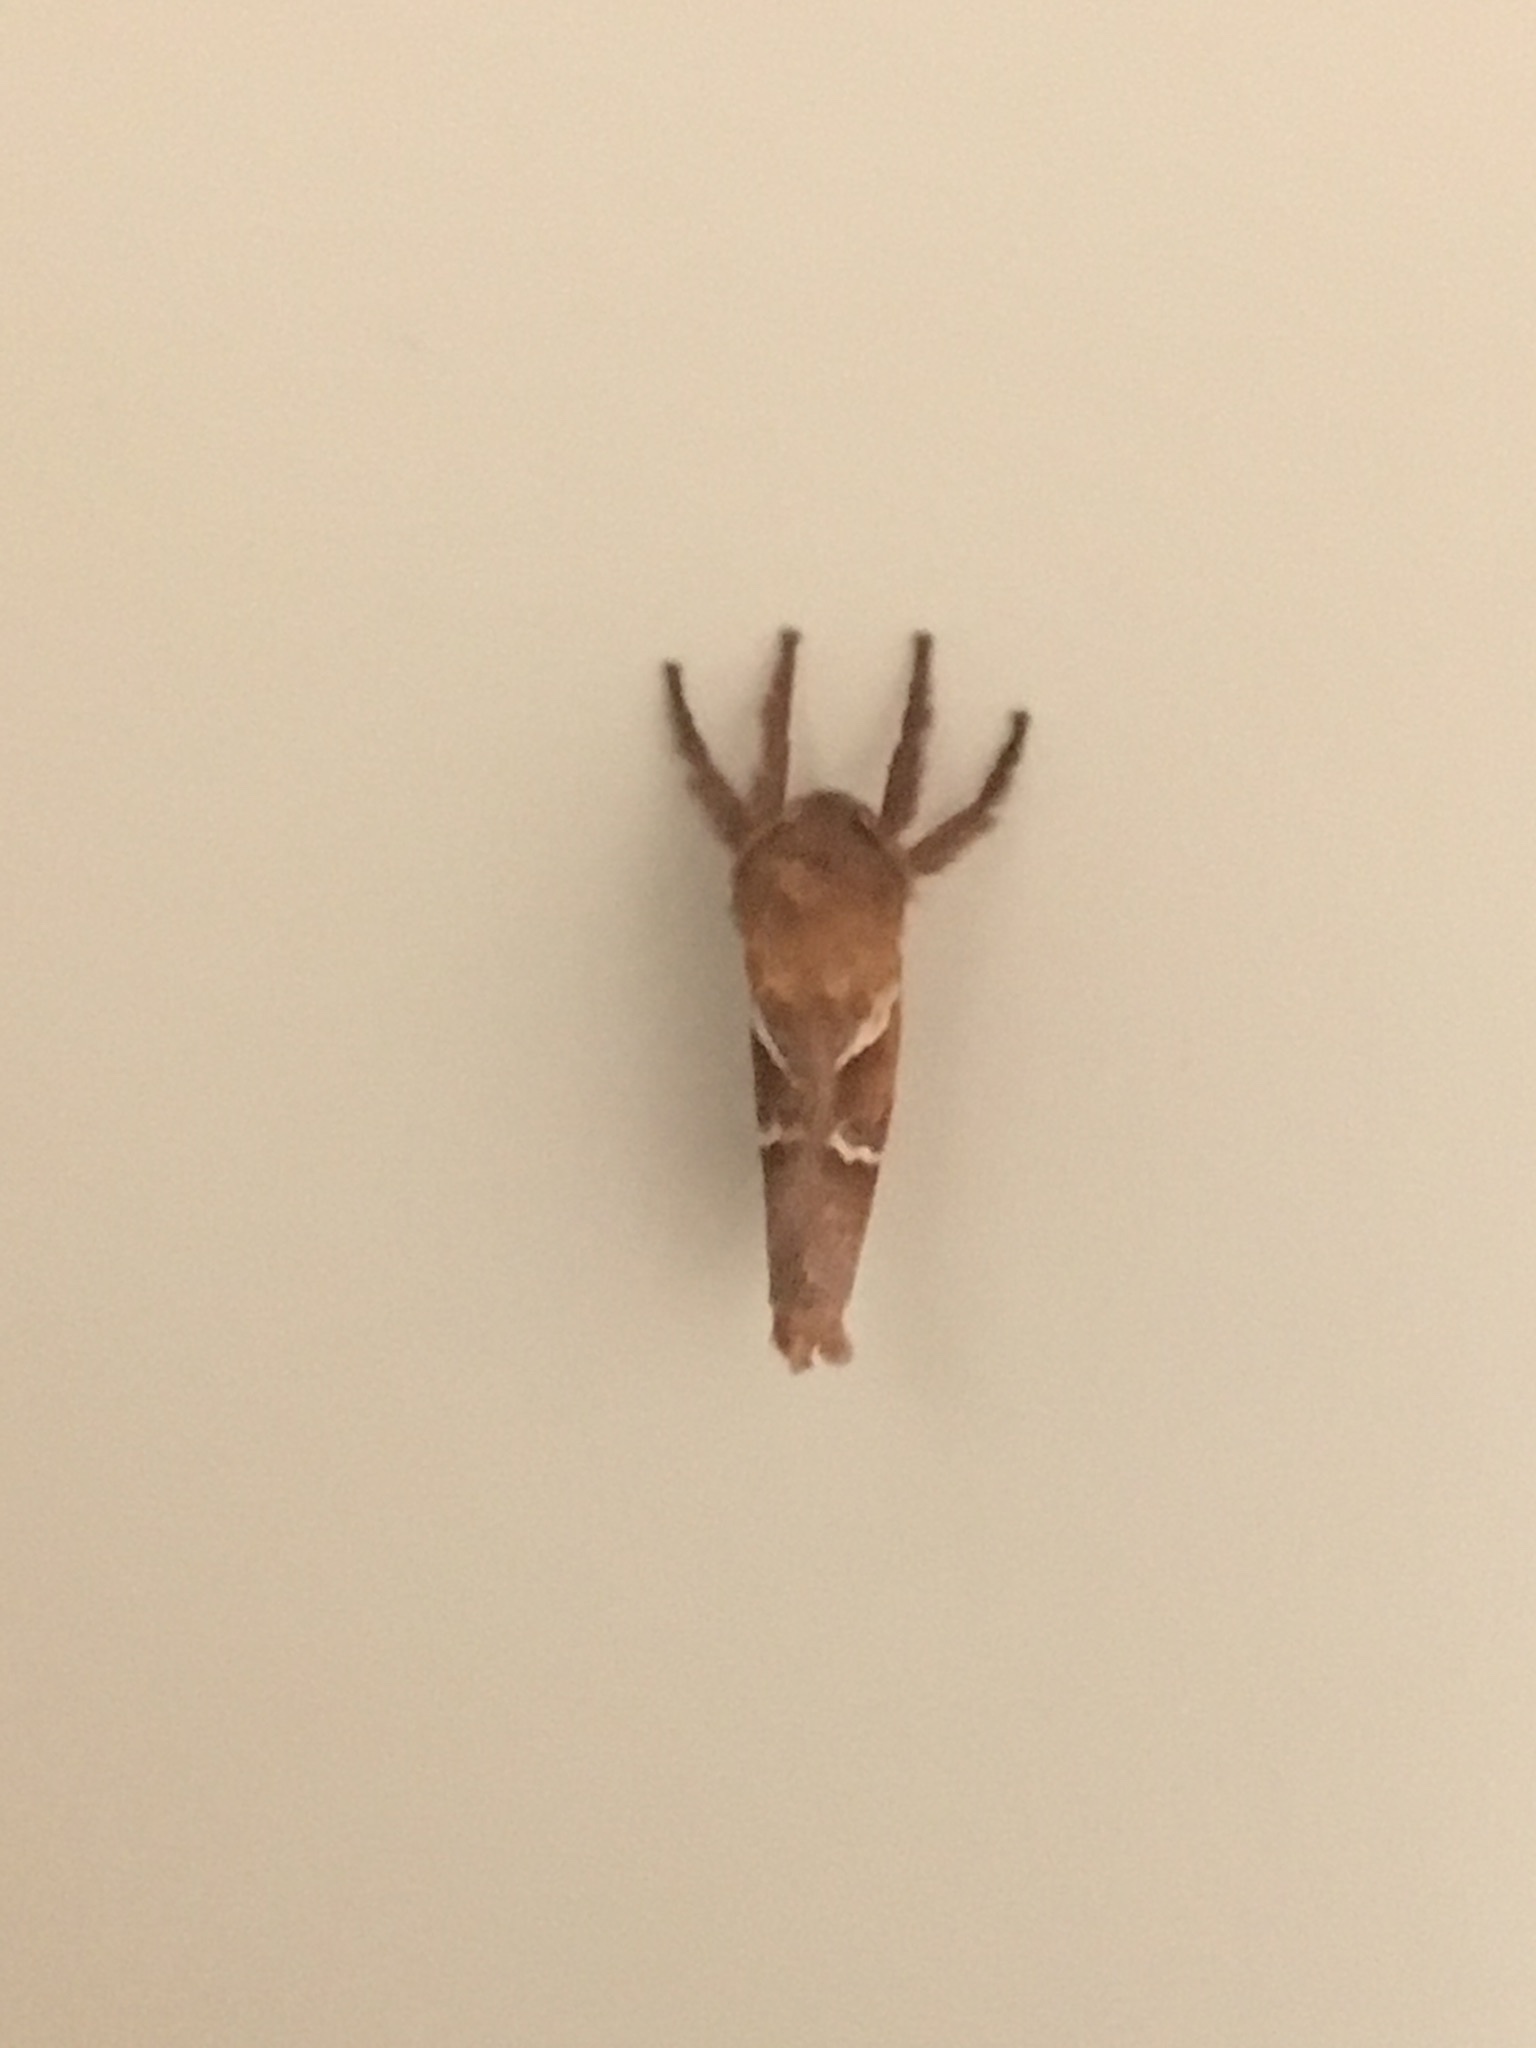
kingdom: Animalia
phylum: Arthropoda
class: Insecta
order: Lepidoptera
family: Hepialidae
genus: Triodia
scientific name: Triodia sylvina
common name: Orange swift
